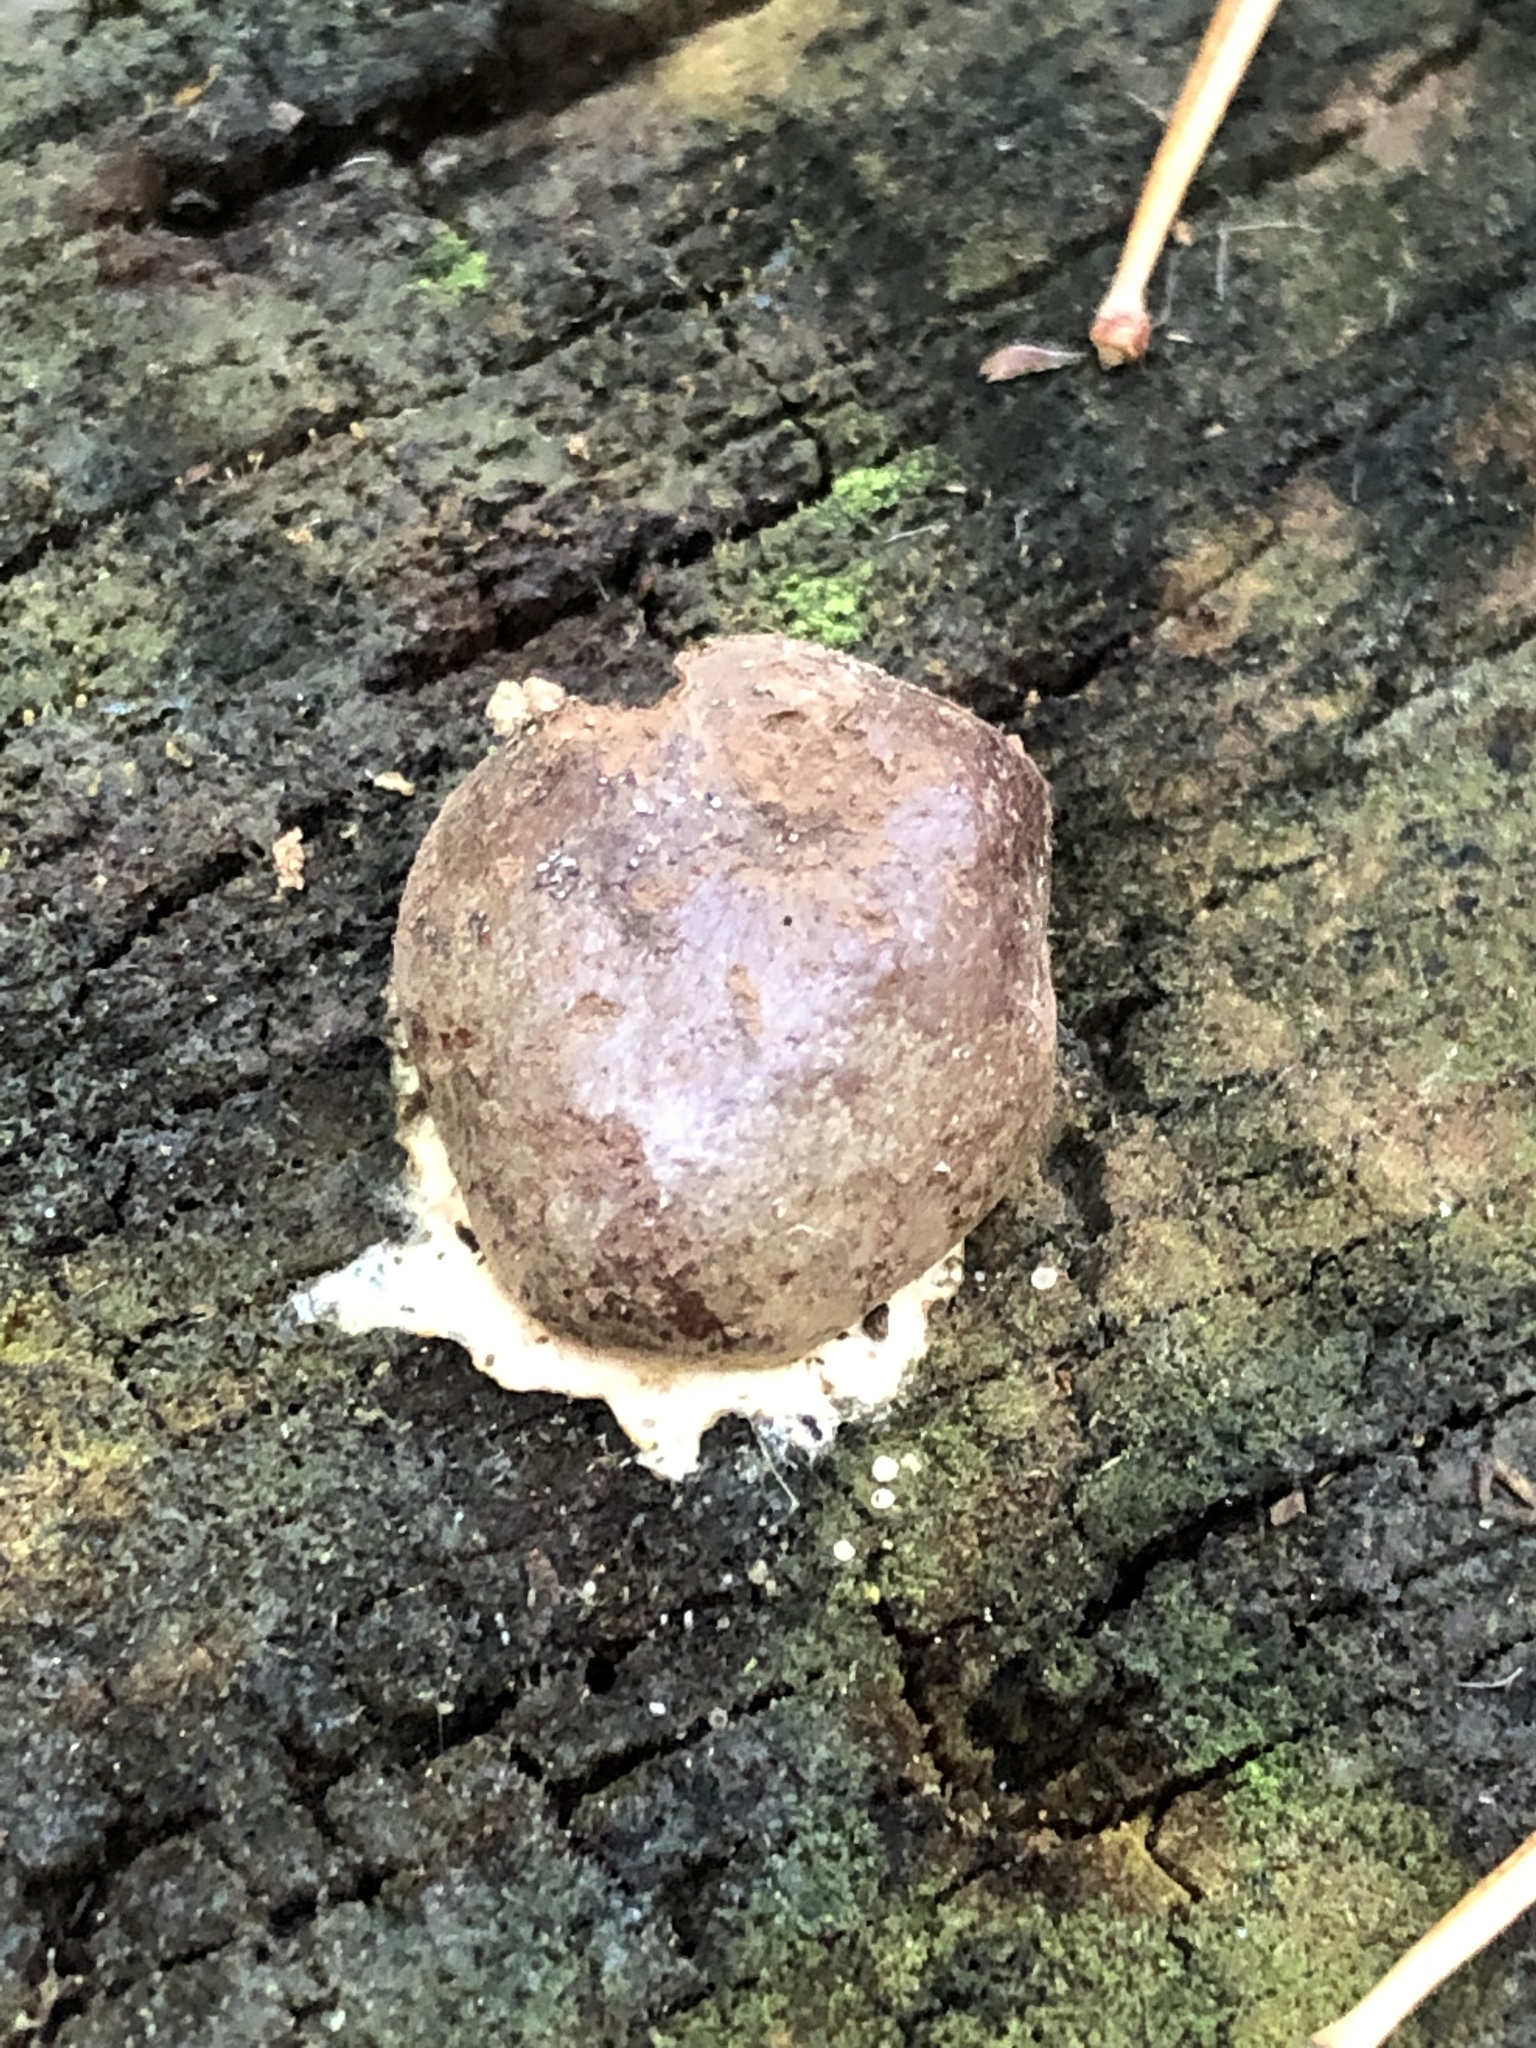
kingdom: Protozoa
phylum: Mycetozoa
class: Myxomycetes
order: Cribrariales
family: Tubiferaceae
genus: Reticularia
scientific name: Reticularia lycoperdon
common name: False puffball
